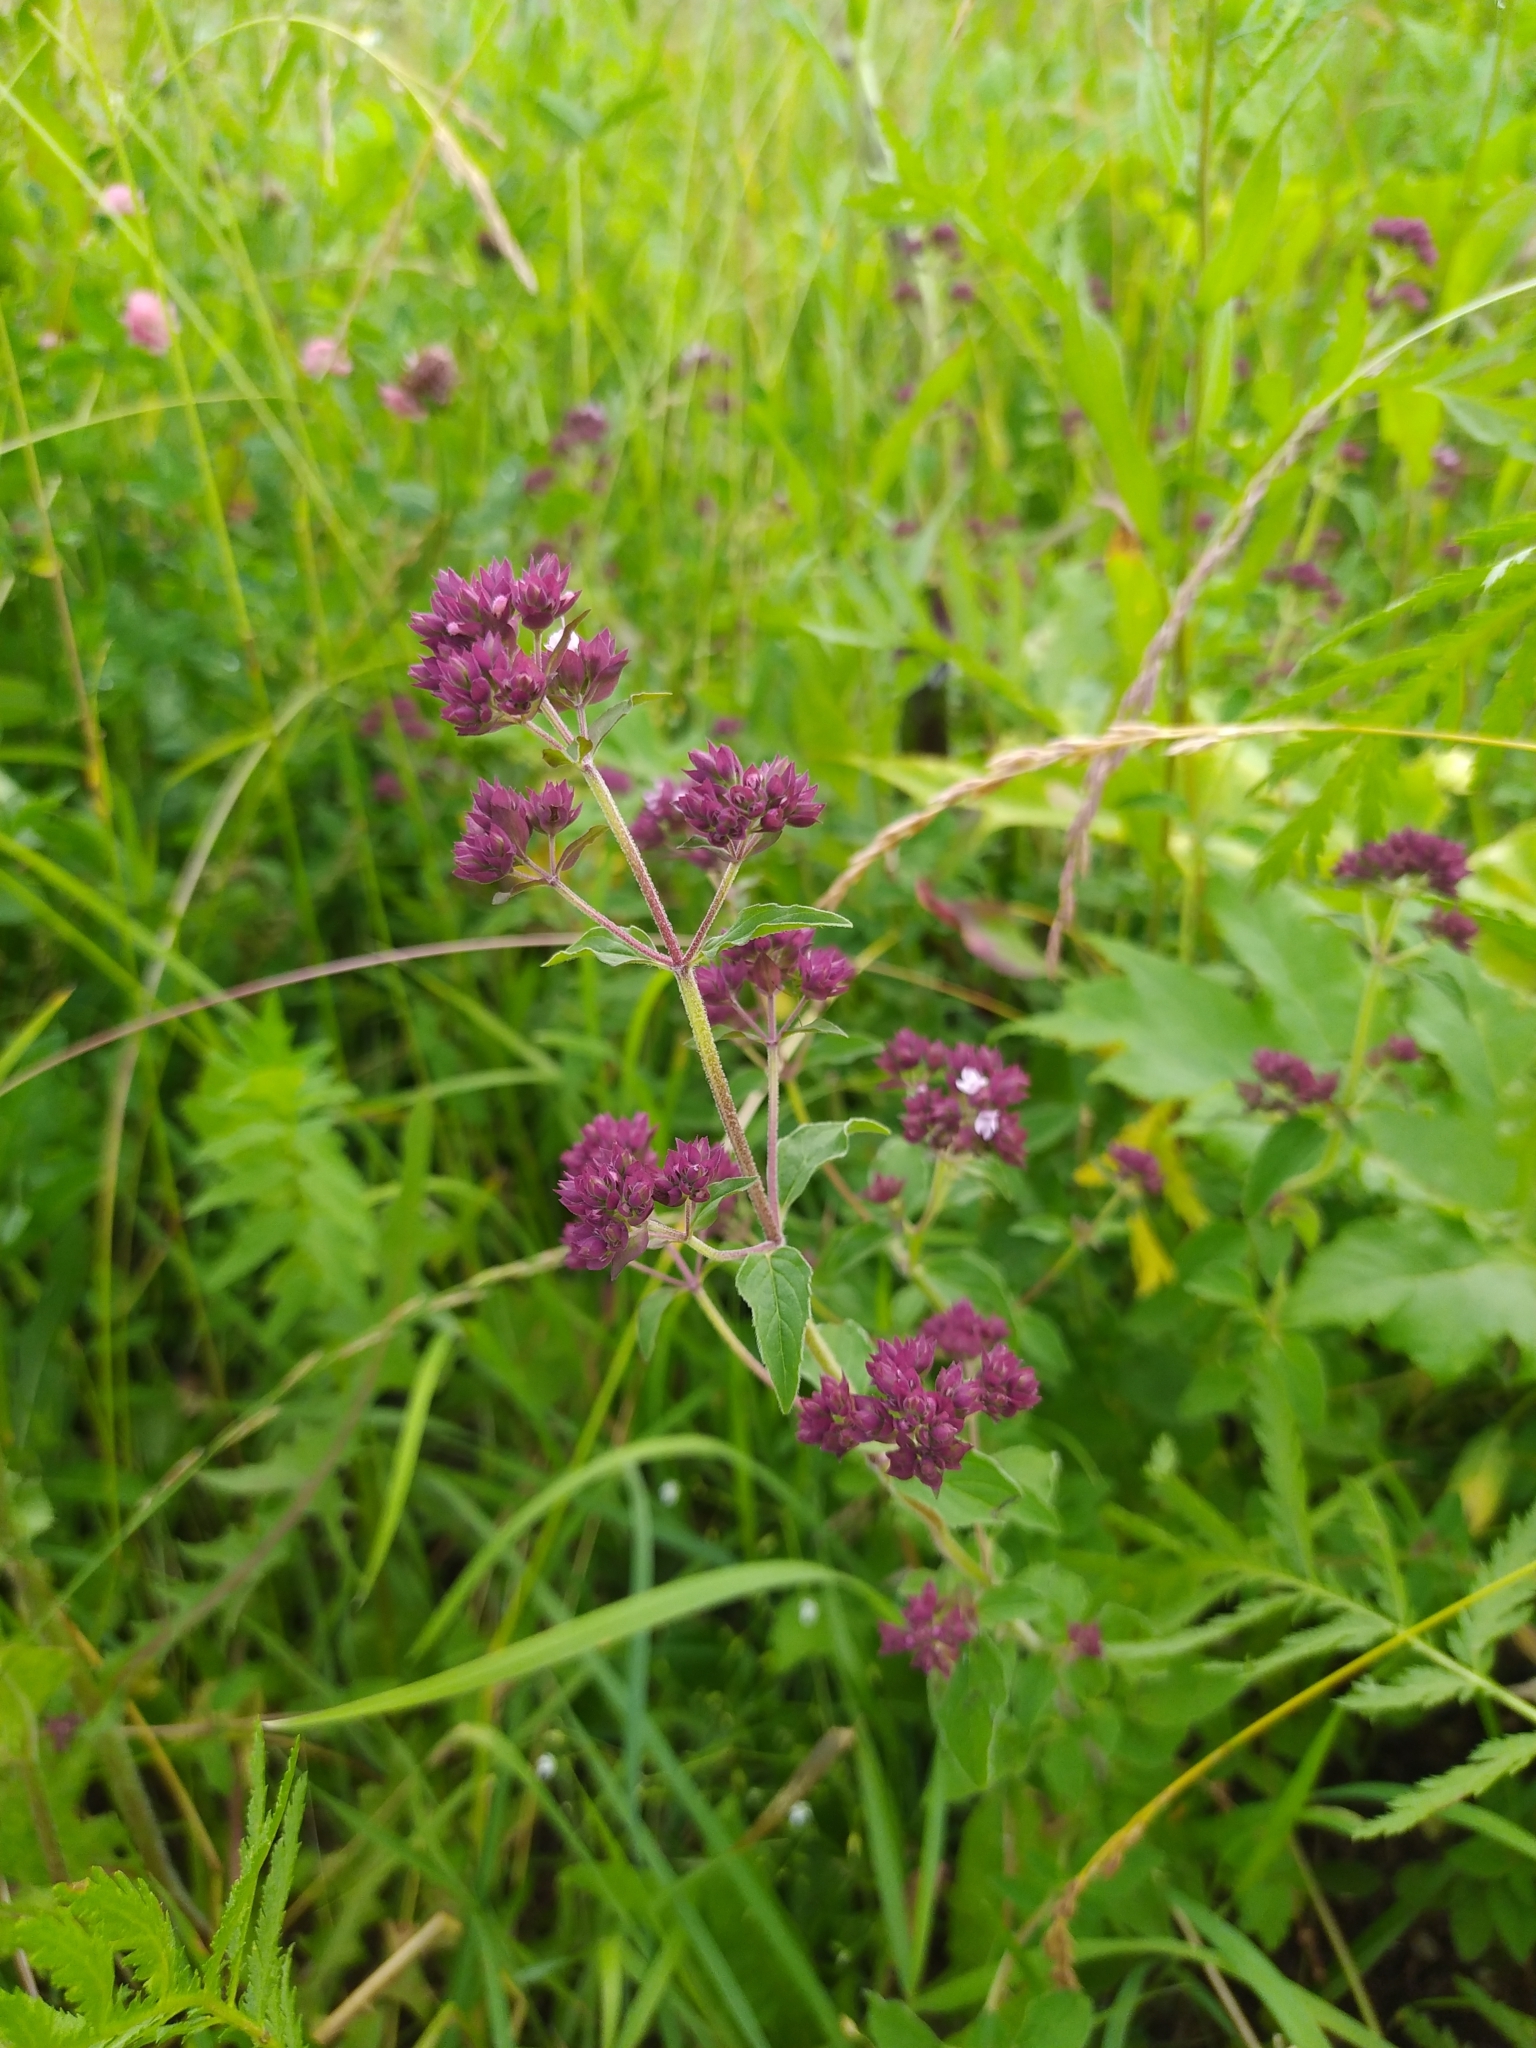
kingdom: Plantae
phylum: Tracheophyta
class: Magnoliopsida
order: Lamiales
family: Lamiaceae
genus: Origanum
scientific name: Origanum vulgare
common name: Wild marjoram
